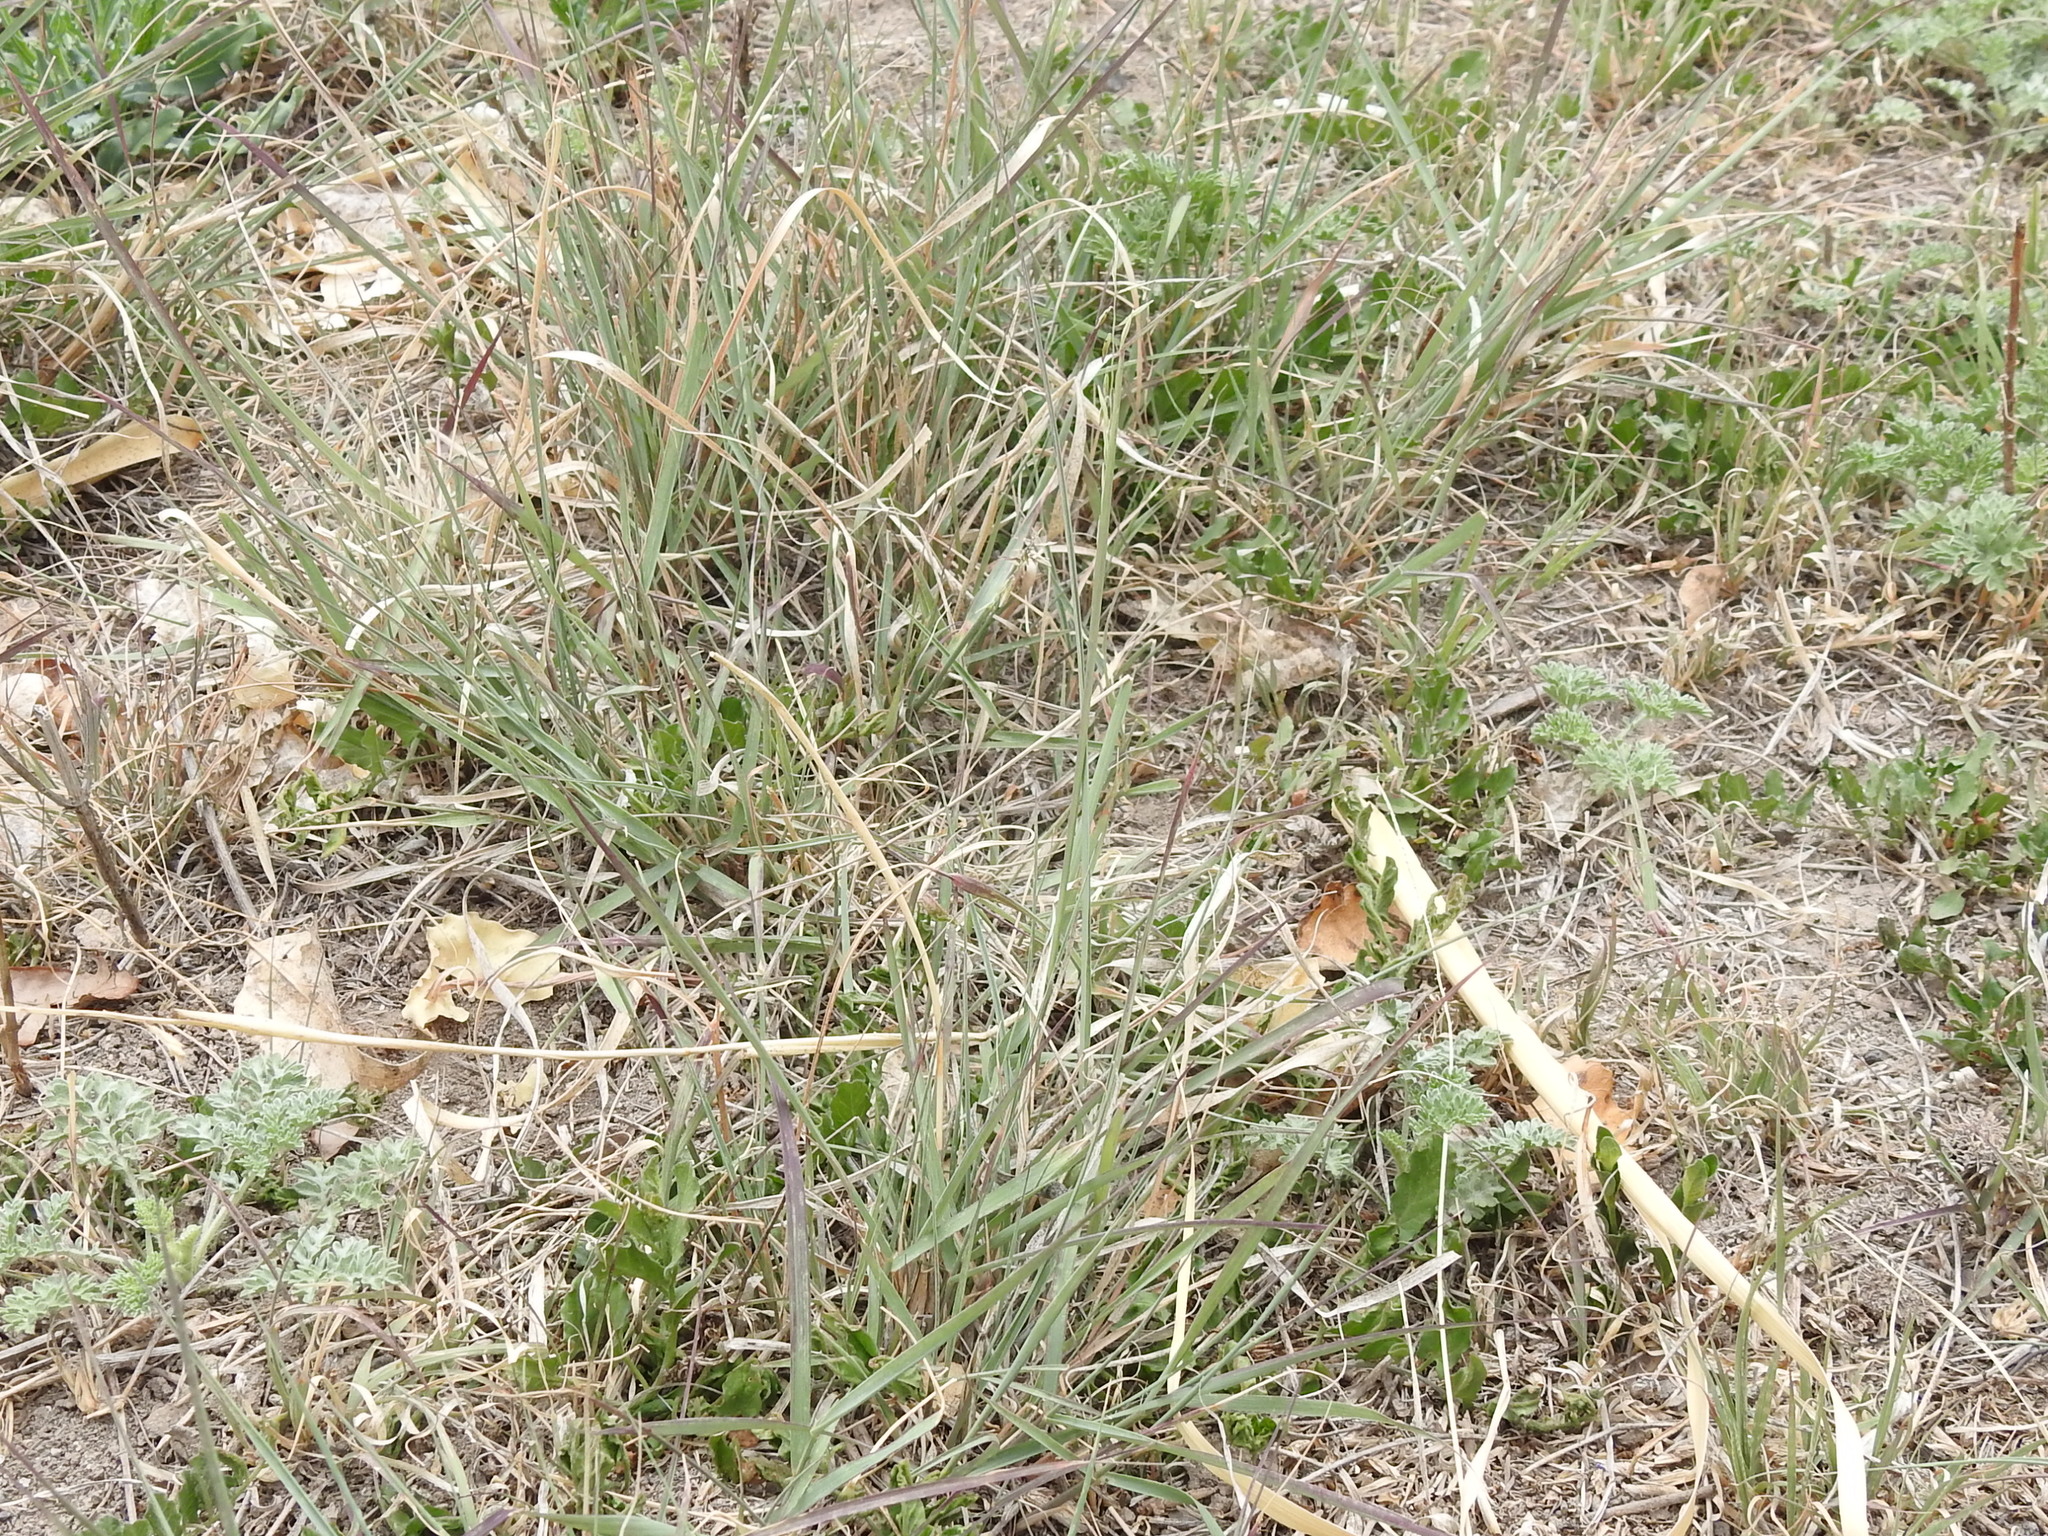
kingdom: Plantae
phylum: Tracheophyta
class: Liliopsida
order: Poales
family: Poaceae
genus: Bouteloua
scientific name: Bouteloua curtipendula
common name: Side-oats grama
